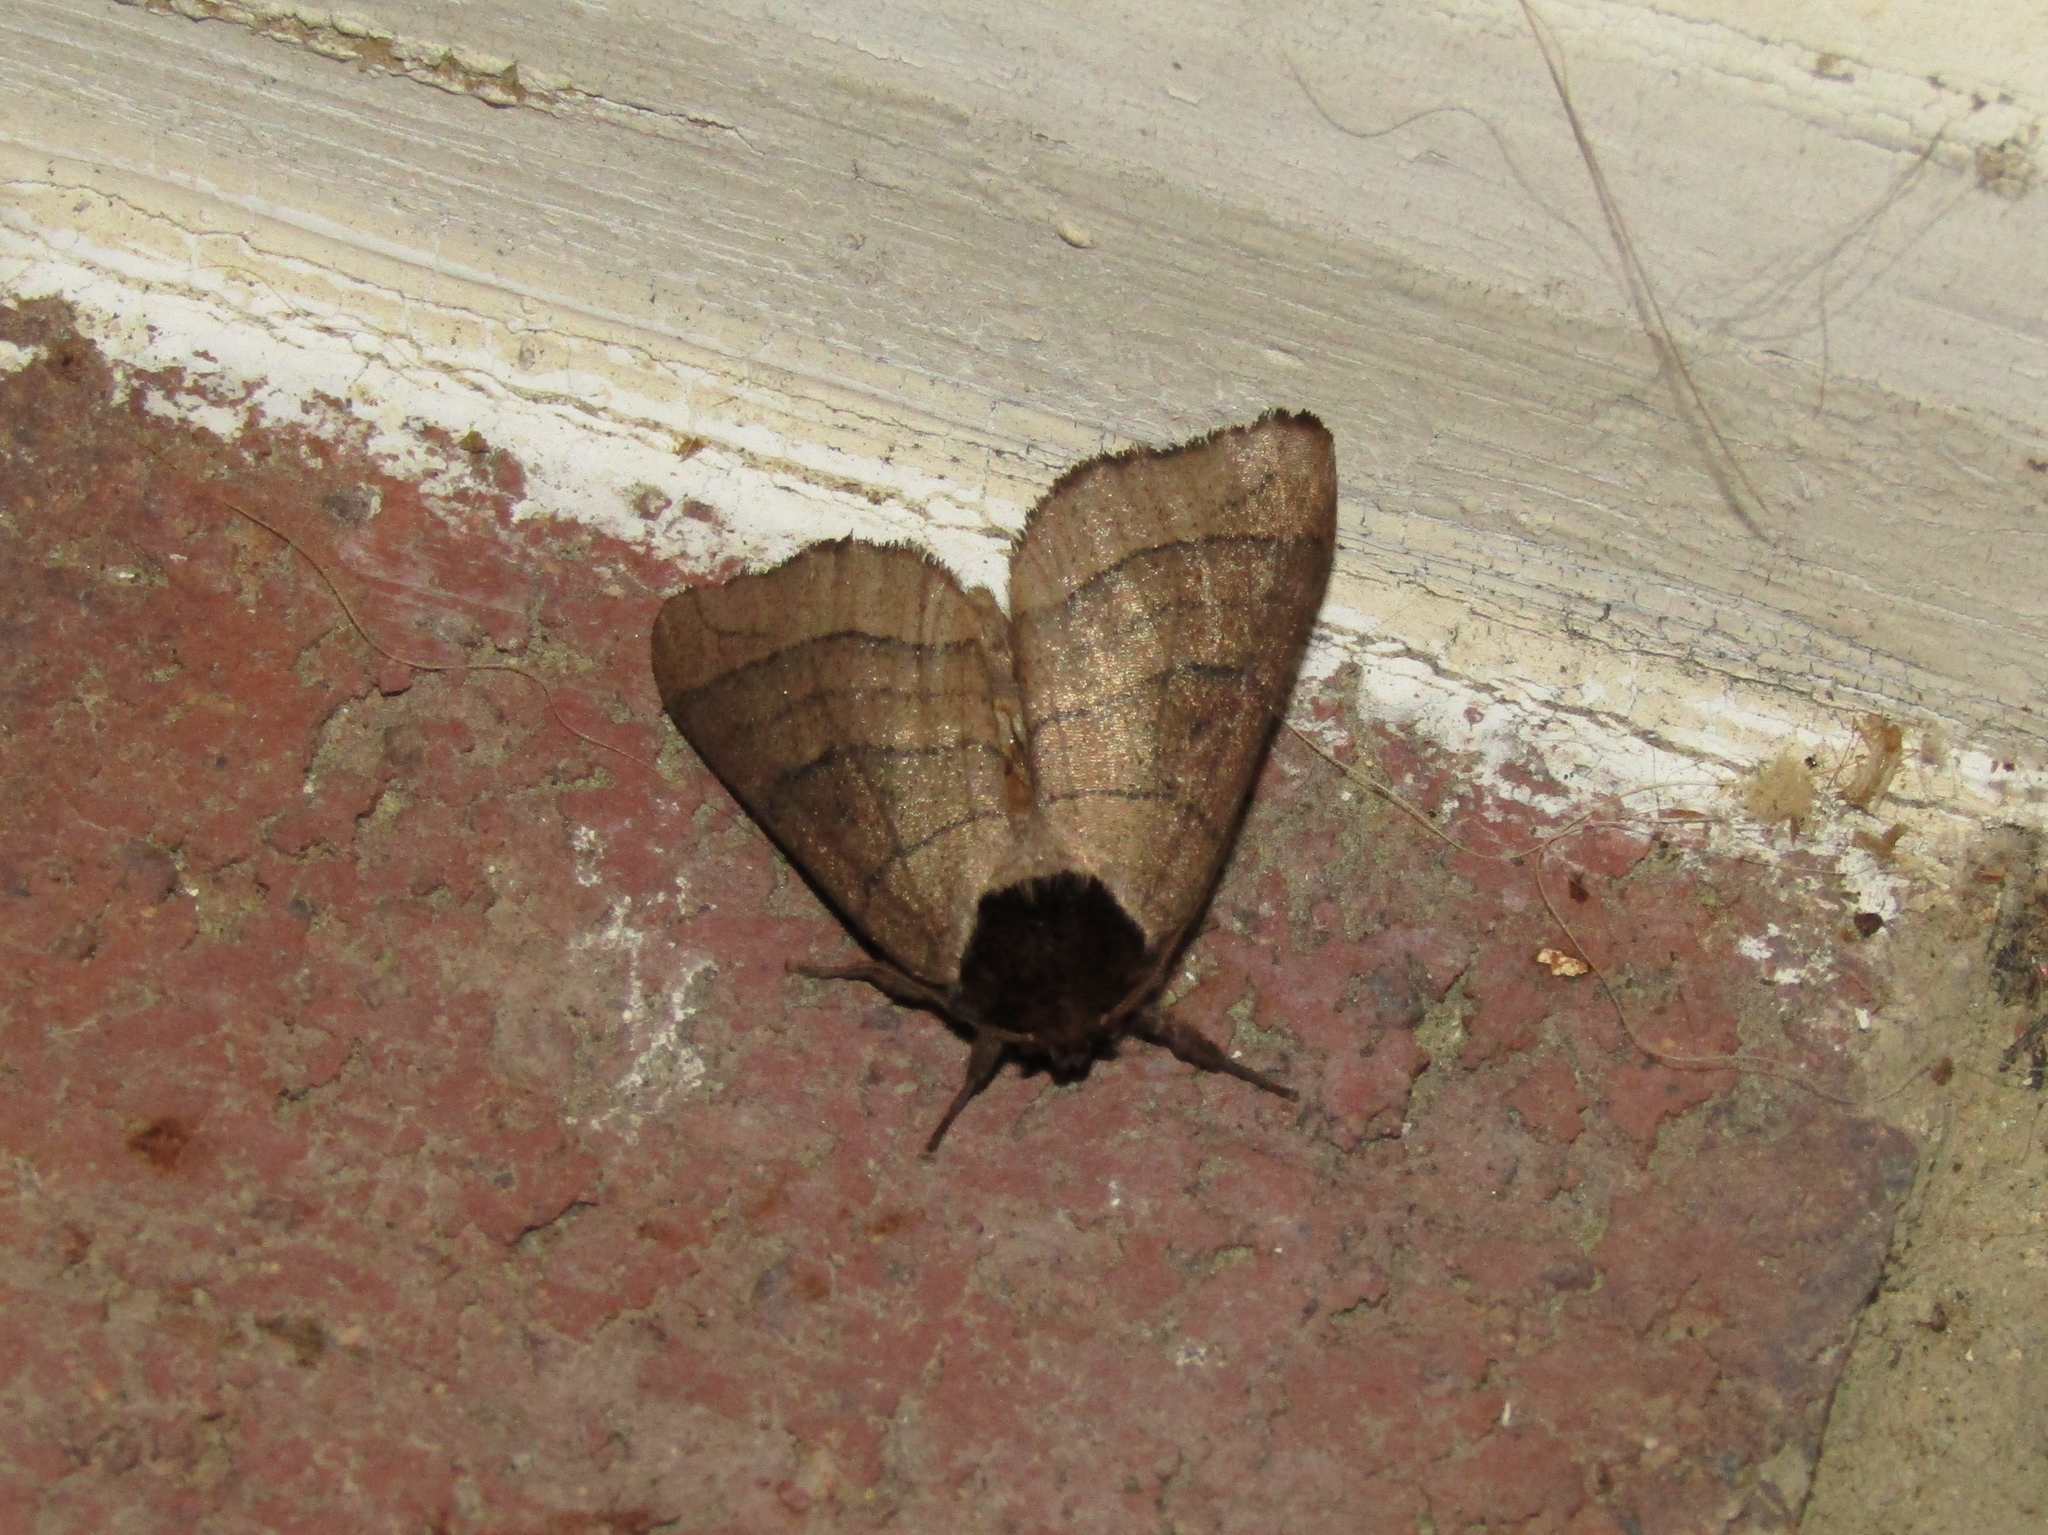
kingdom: Animalia
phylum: Arthropoda
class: Insecta
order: Lepidoptera
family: Notodontidae
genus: Datana
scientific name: Datana angusii
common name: Angus's datana
